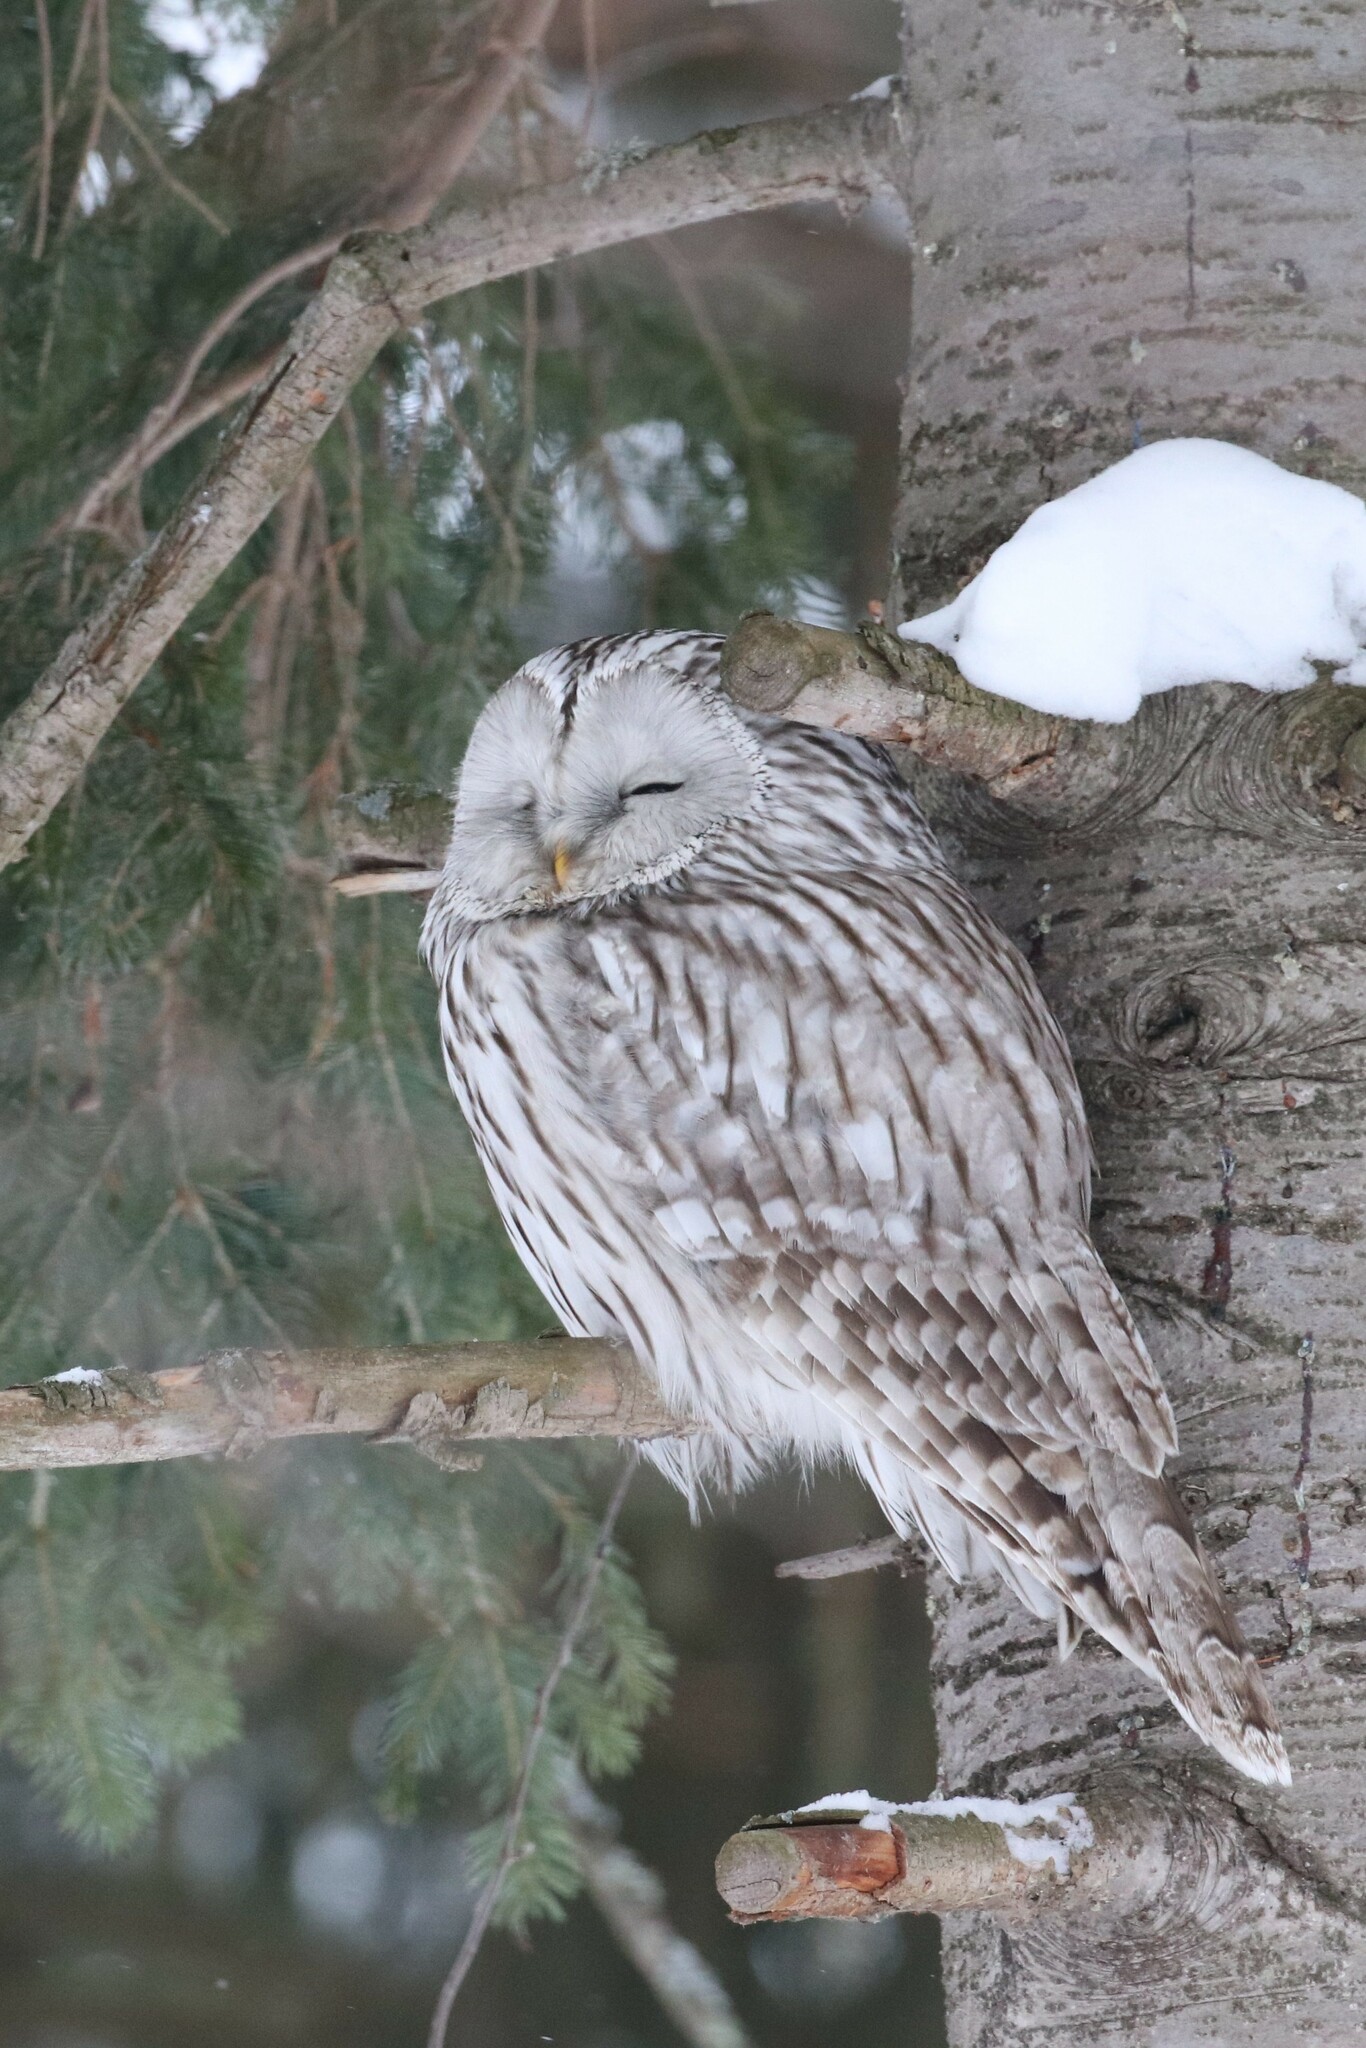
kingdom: Animalia
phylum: Chordata
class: Aves
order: Strigiformes
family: Strigidae
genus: Strix
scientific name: Strix uralensis
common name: Ural owl
